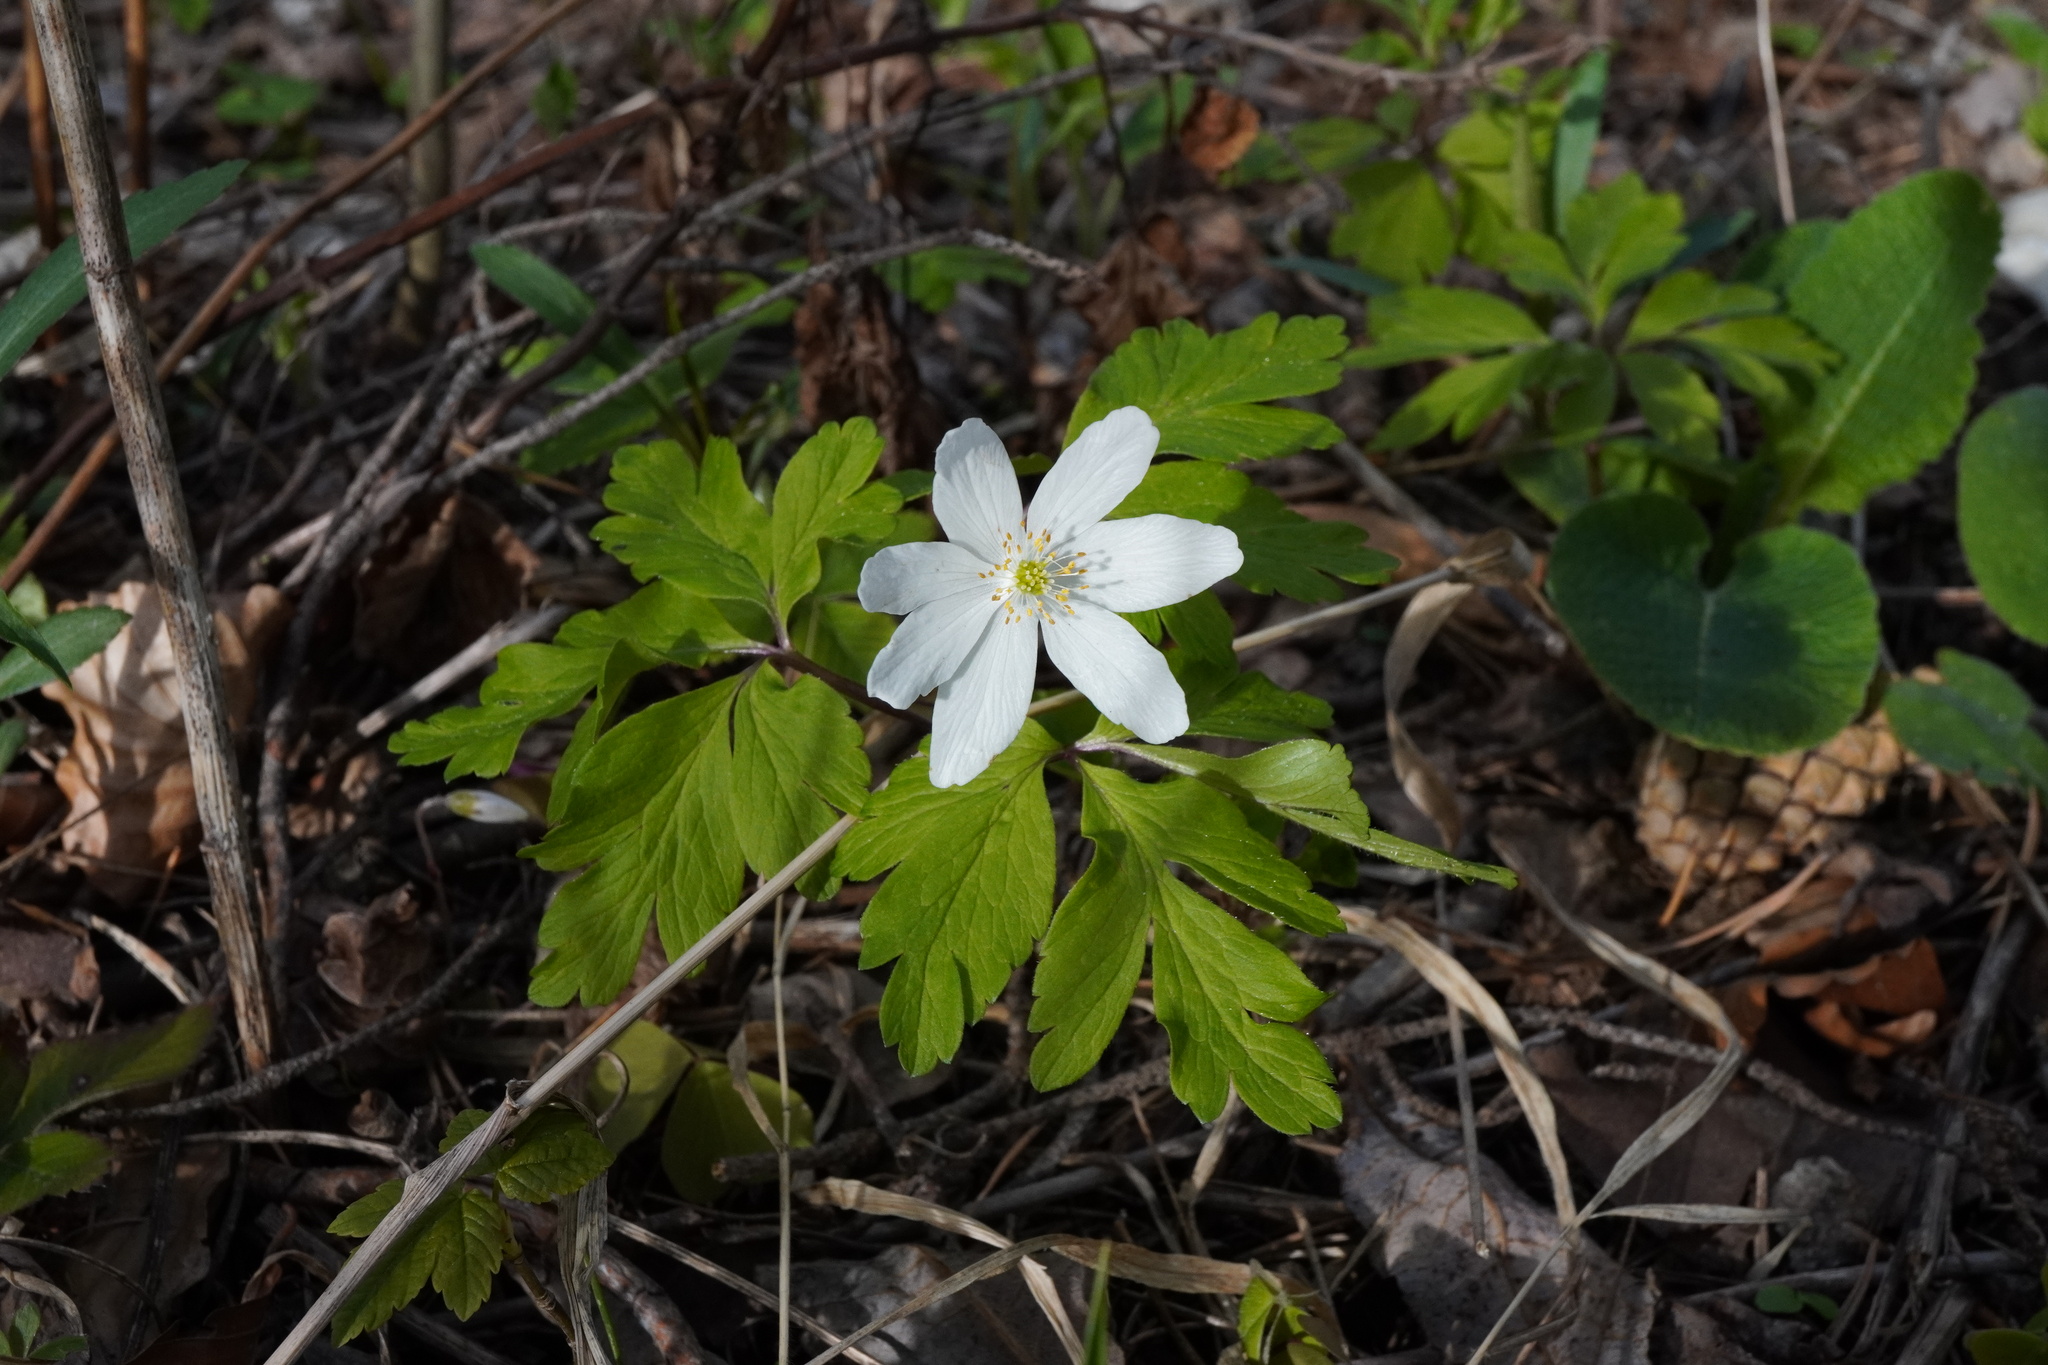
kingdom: Plantae
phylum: Tracheophyta
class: Magnoliopsida
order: Ranunculales
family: Ranunculaceae
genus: Anemone
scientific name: Anemone nemorosa
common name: Wood anemone
